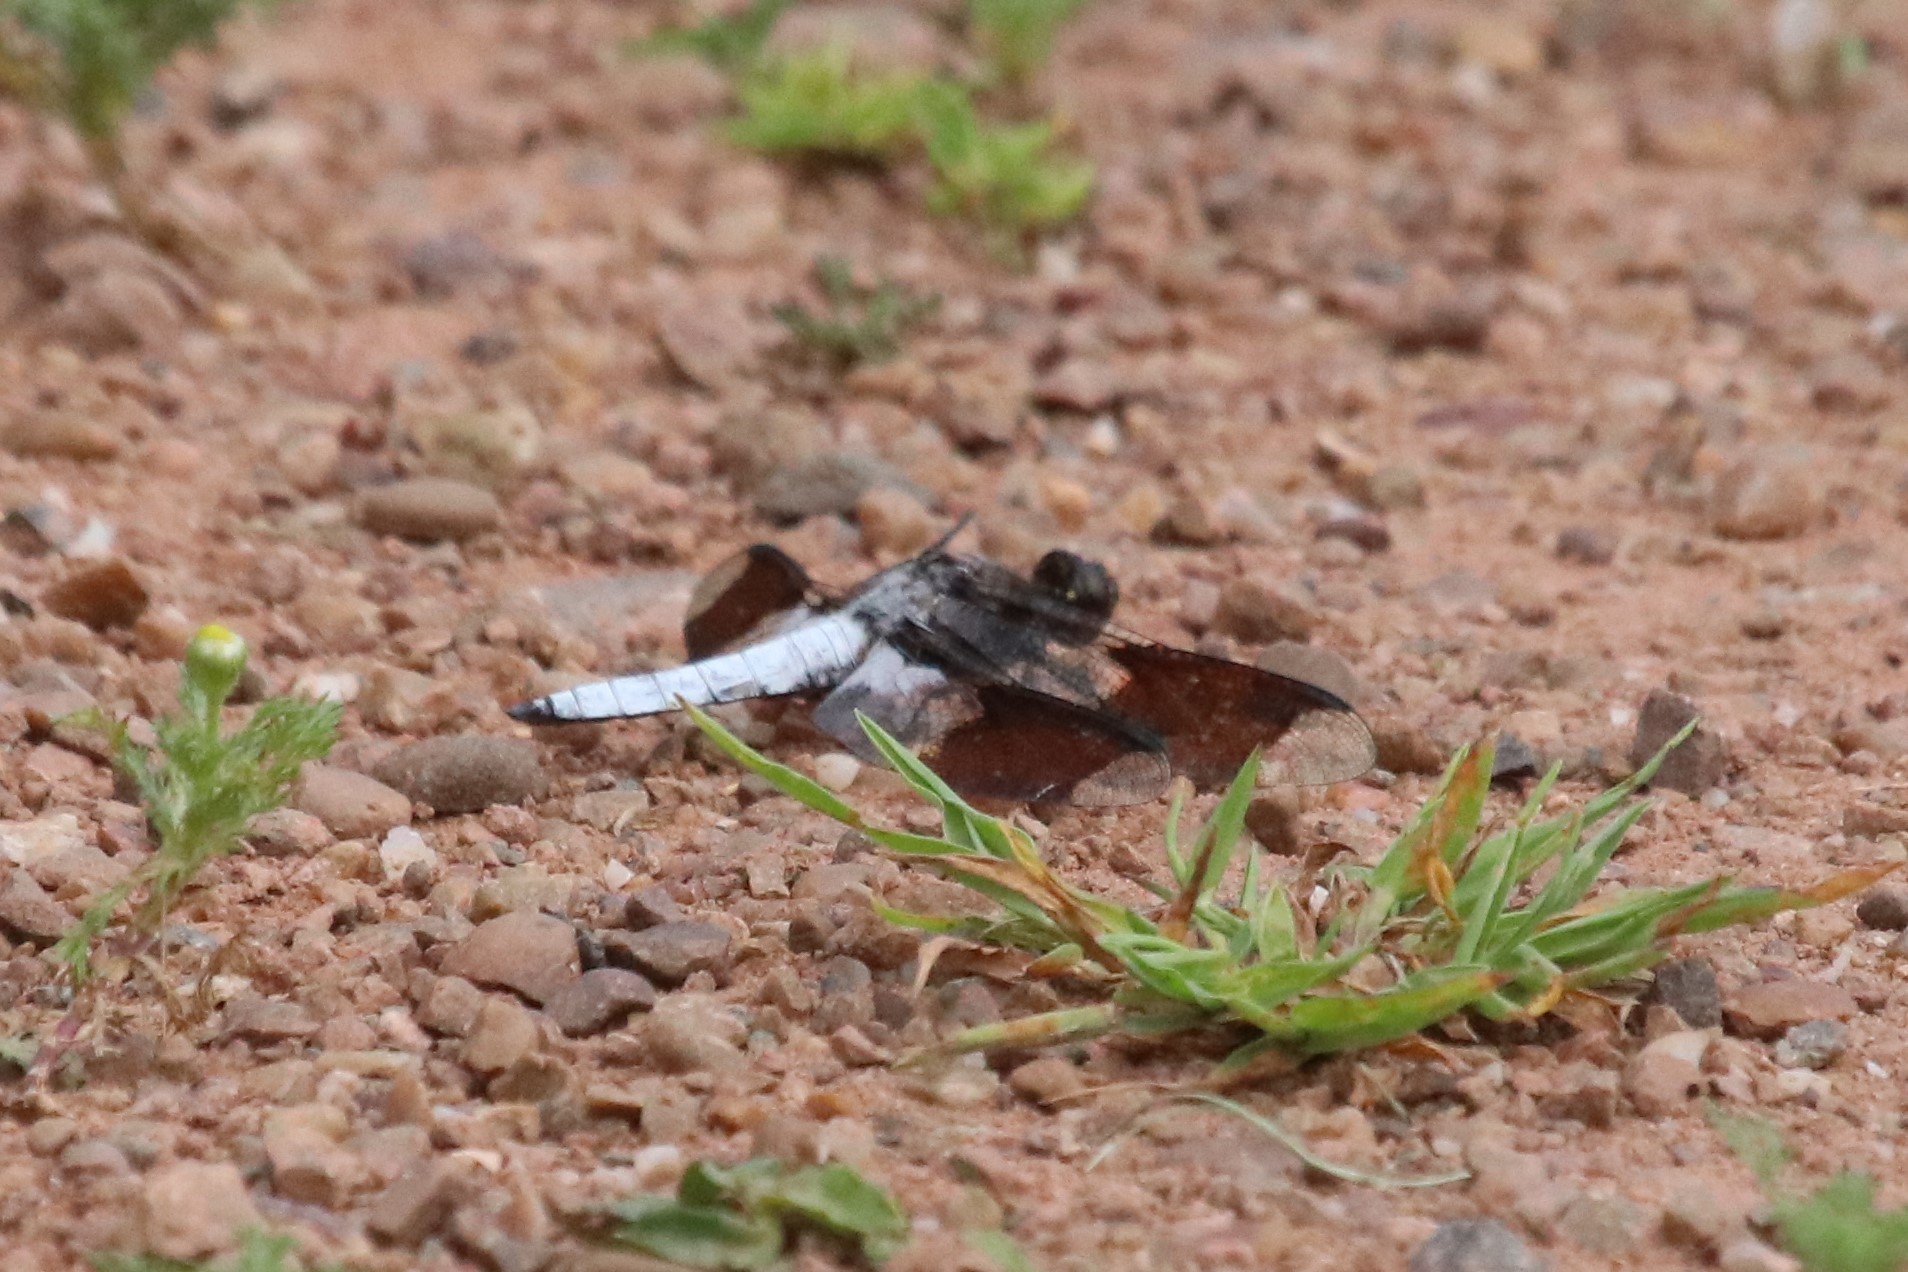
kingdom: Animalia
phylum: Arthropoda
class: Insecta
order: Odonata
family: Libellulidae
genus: Plathemis
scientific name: Plathemis lydia
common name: Common whitetail
